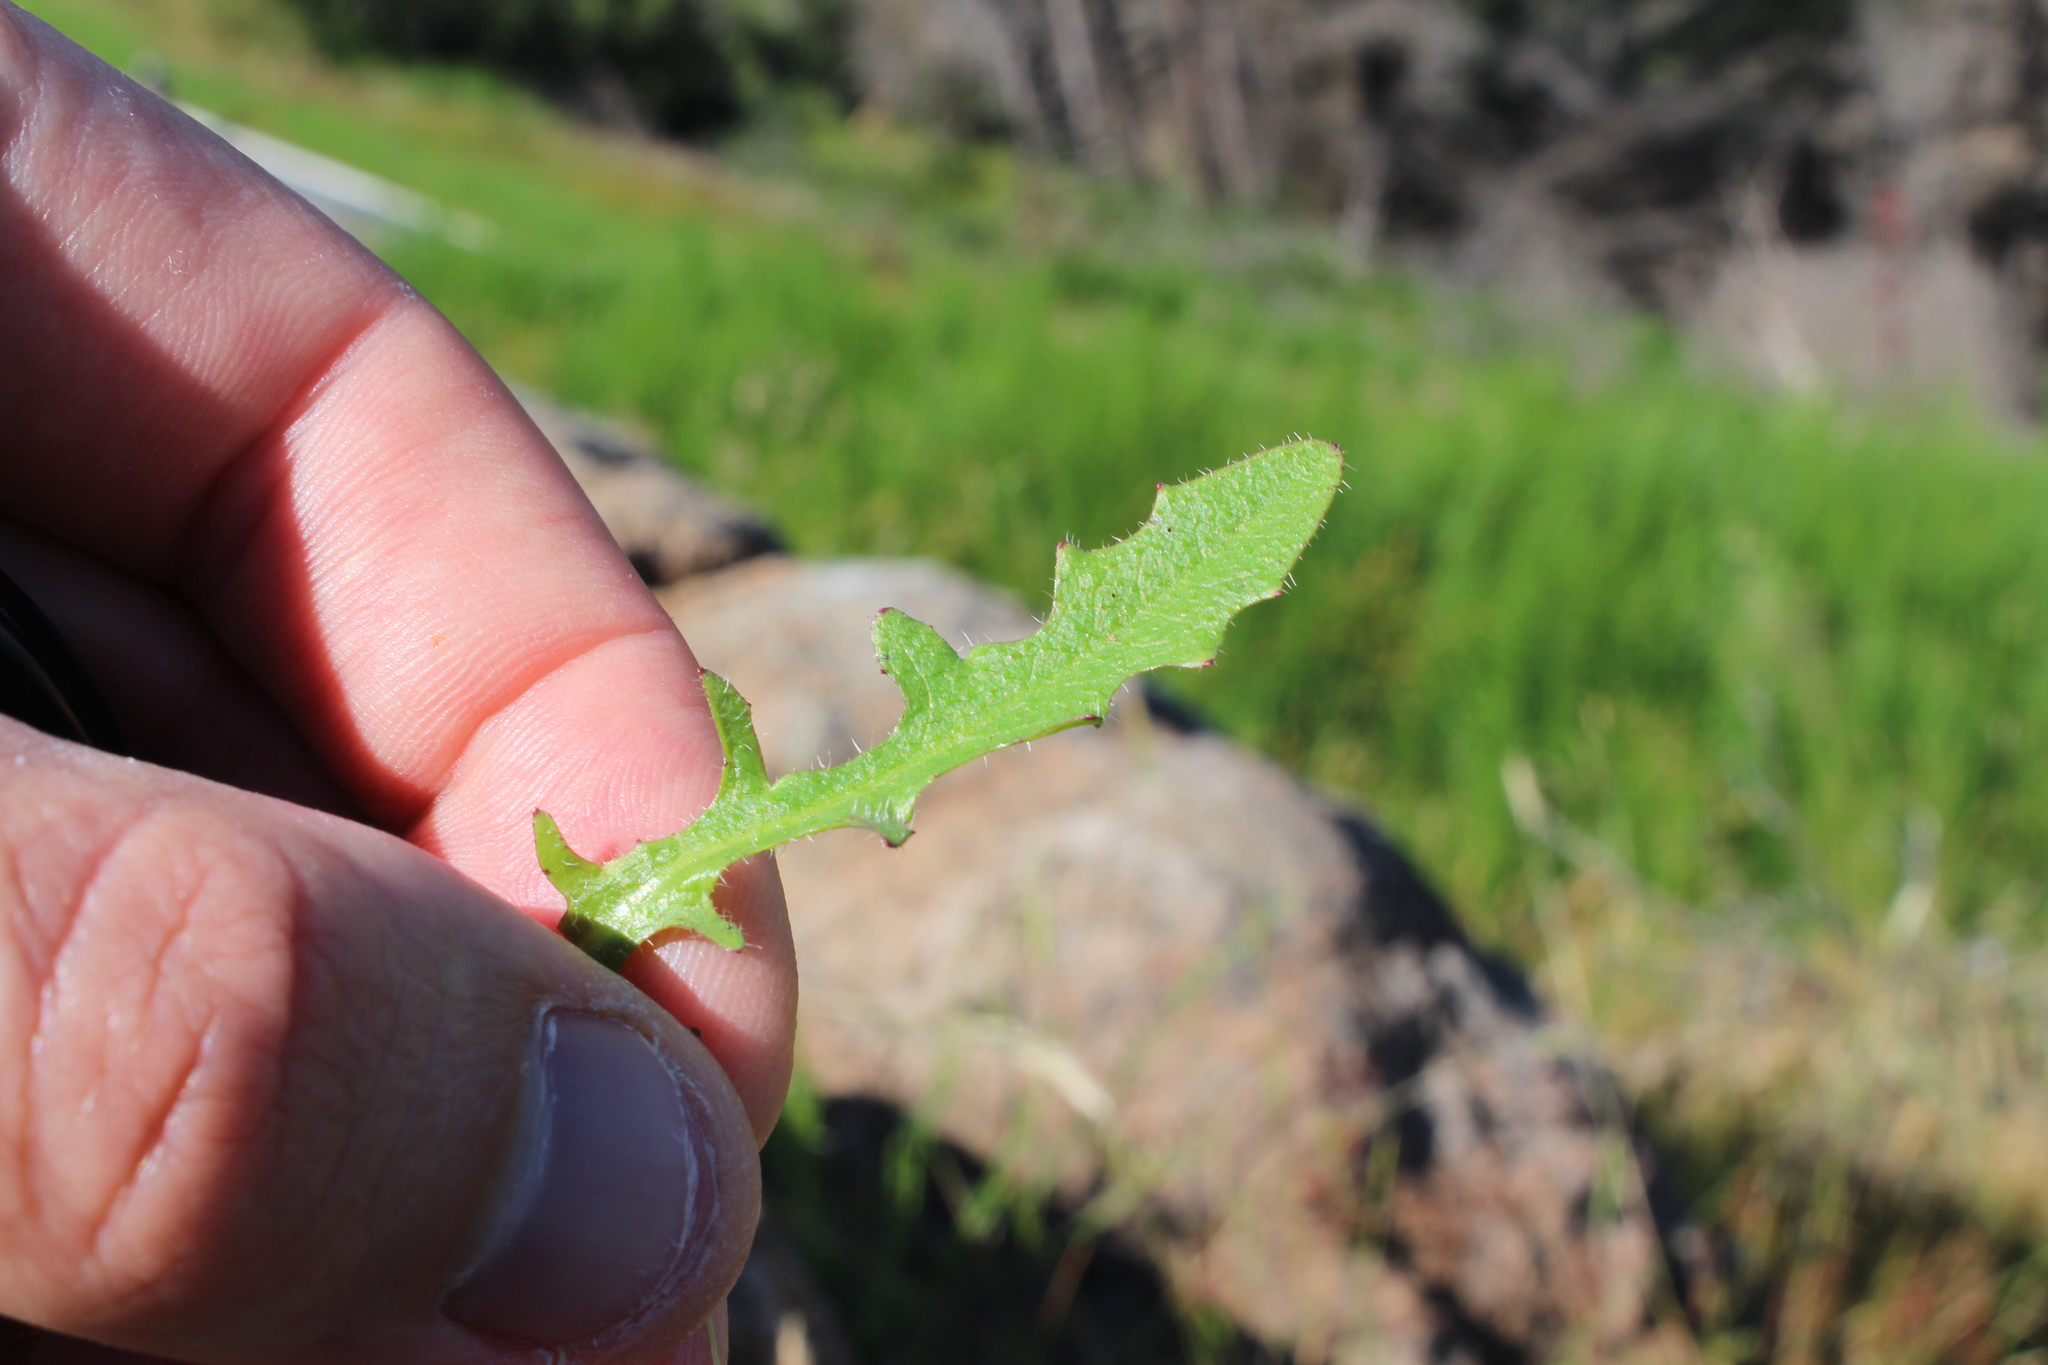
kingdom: Plantae
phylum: Tracheophyta
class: Magnoliopsida
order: Asterales
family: Asteraceae
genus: Hypochaeris
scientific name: Hypochaeris radicata
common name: Flatweed
